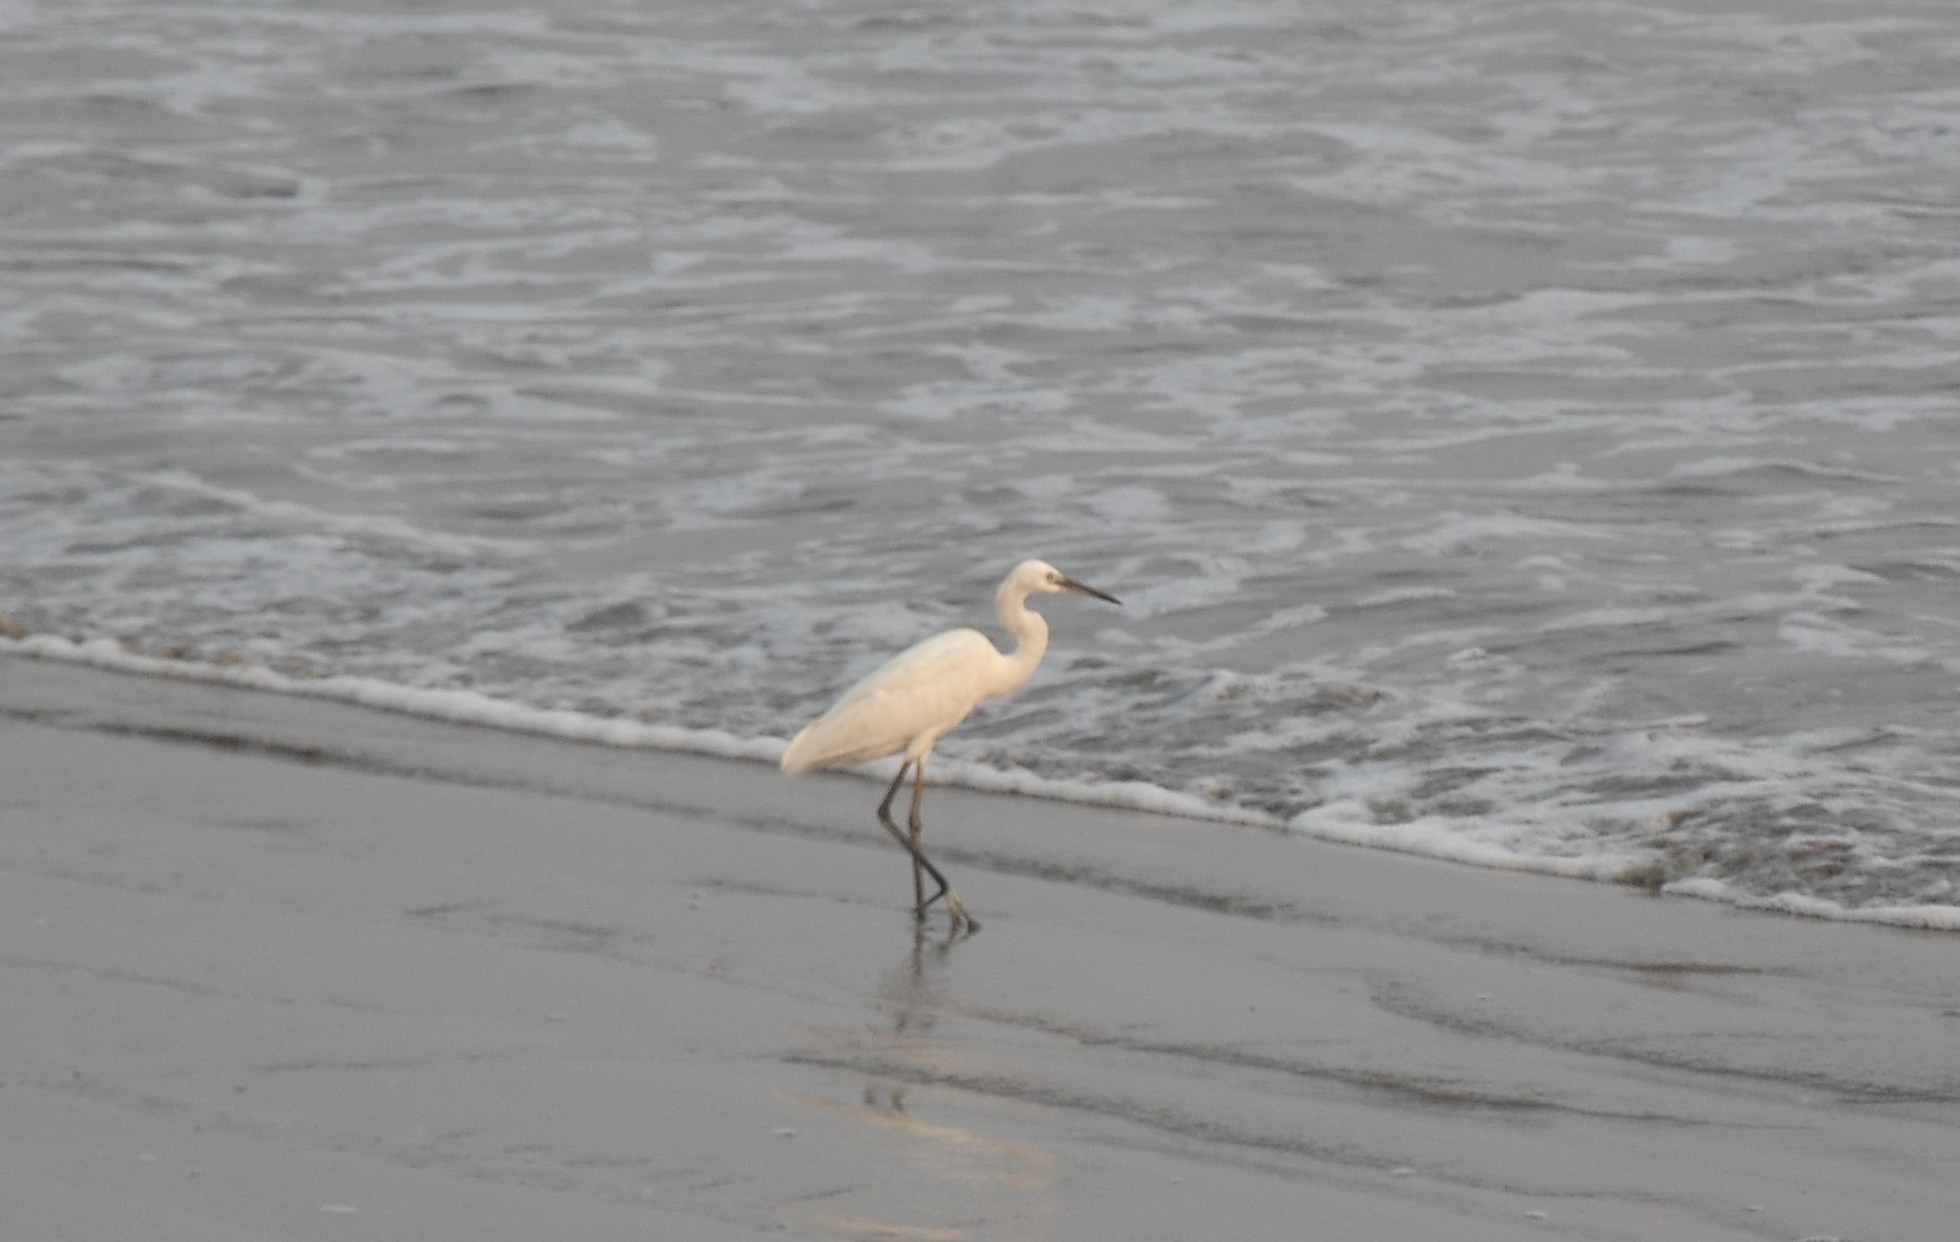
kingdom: Animalia
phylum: Chordata
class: Aves
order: Pelecaniformes
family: Ardeidae
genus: Egretta
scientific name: Egretta gularis
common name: Western reef-heron
